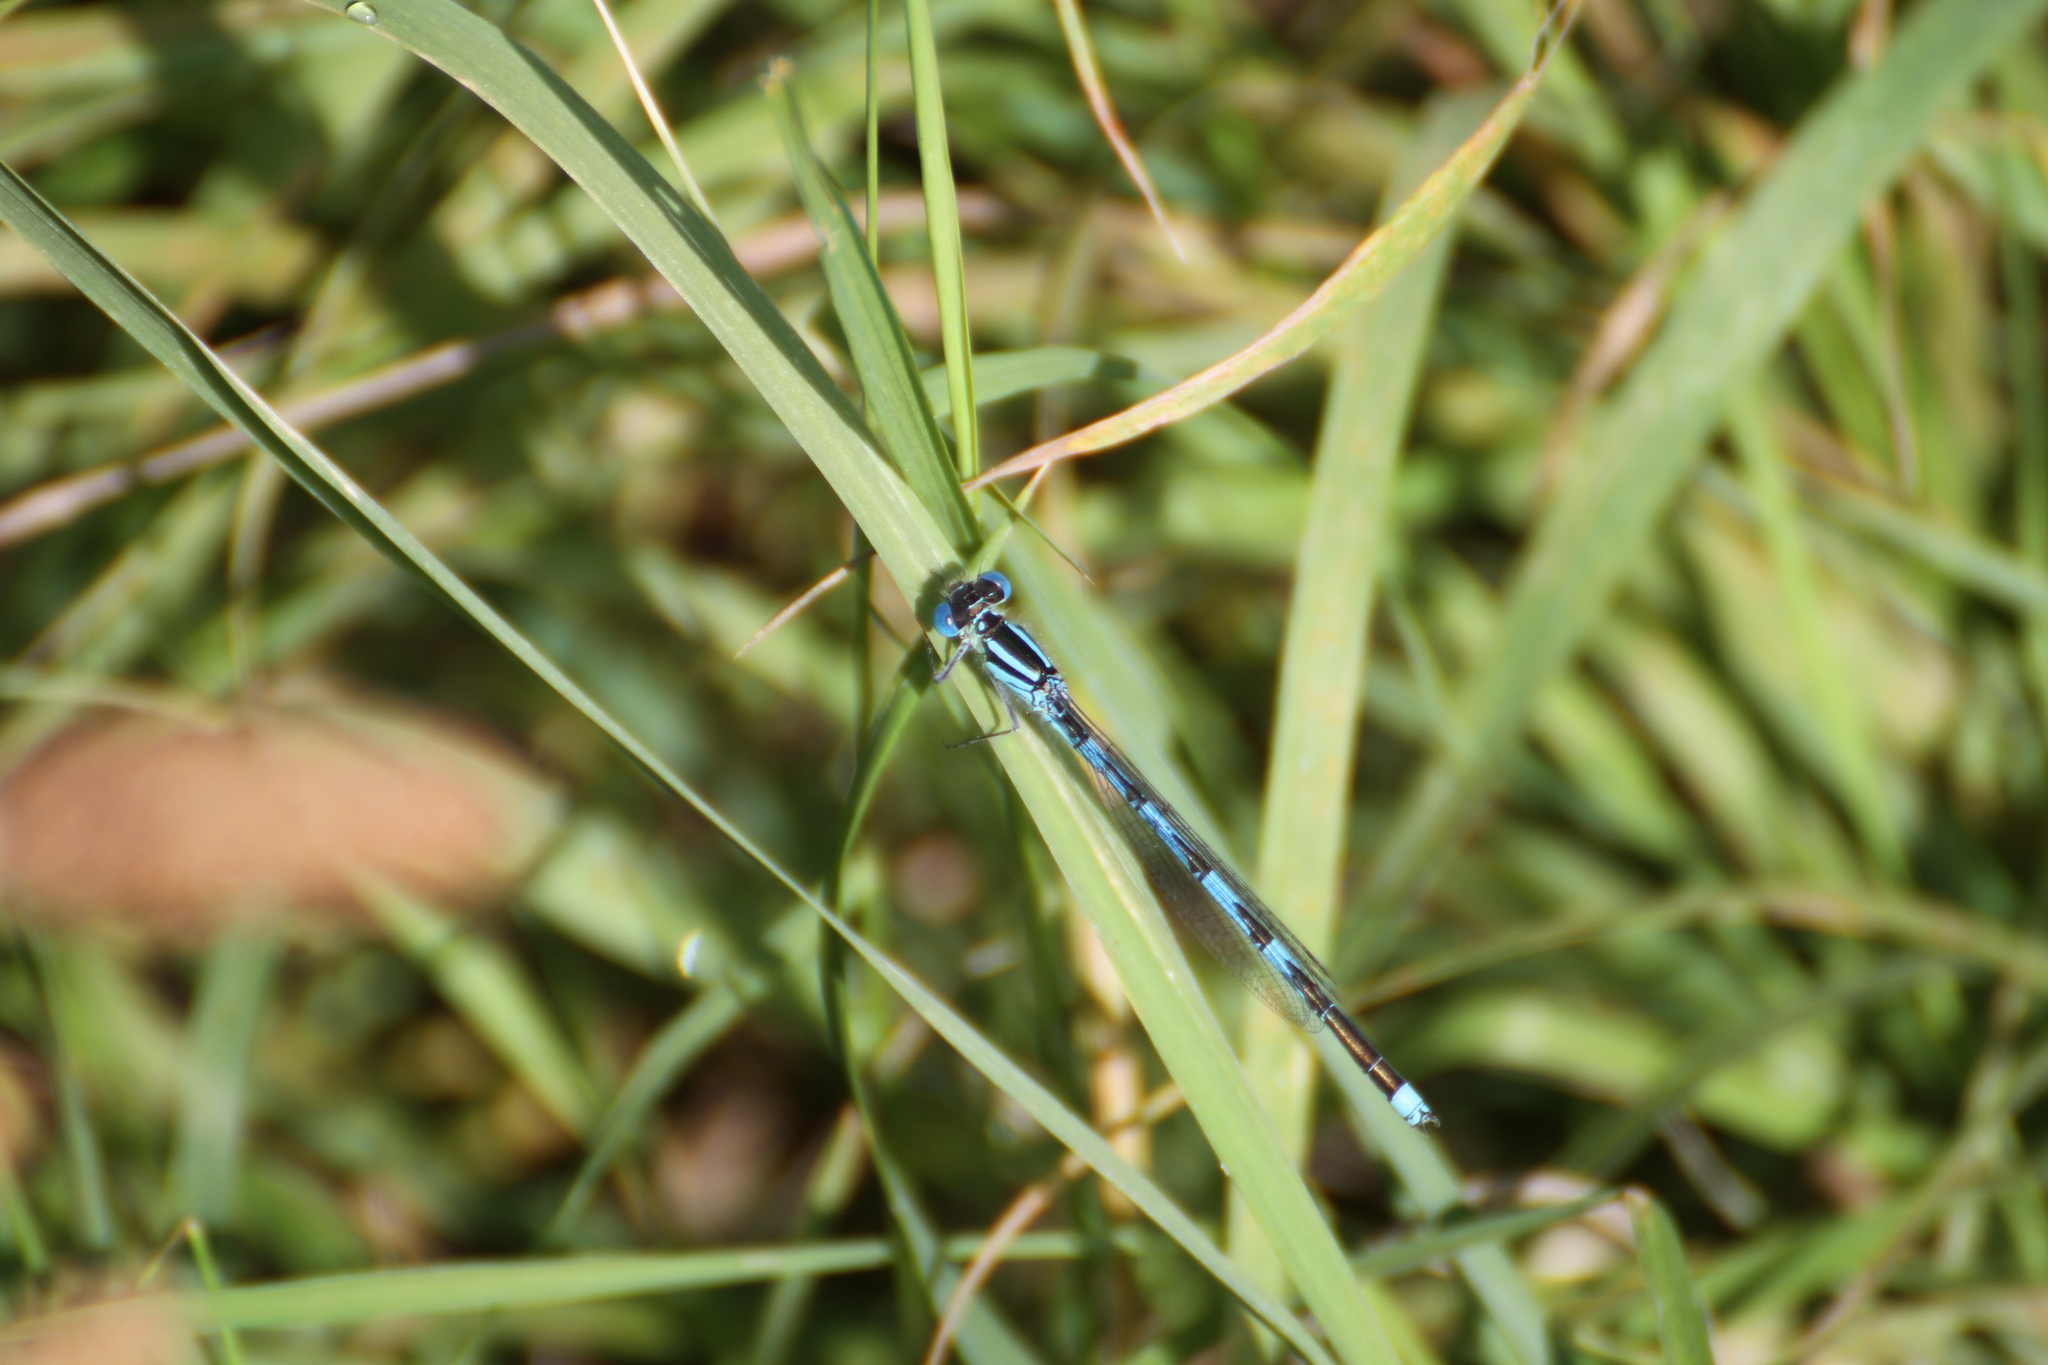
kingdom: Animalia
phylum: Arthropoda
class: Insecta
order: Odonata
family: Coenagrionidae
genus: Erythromma
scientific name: Erythromma lindenii
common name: Blue-eye
